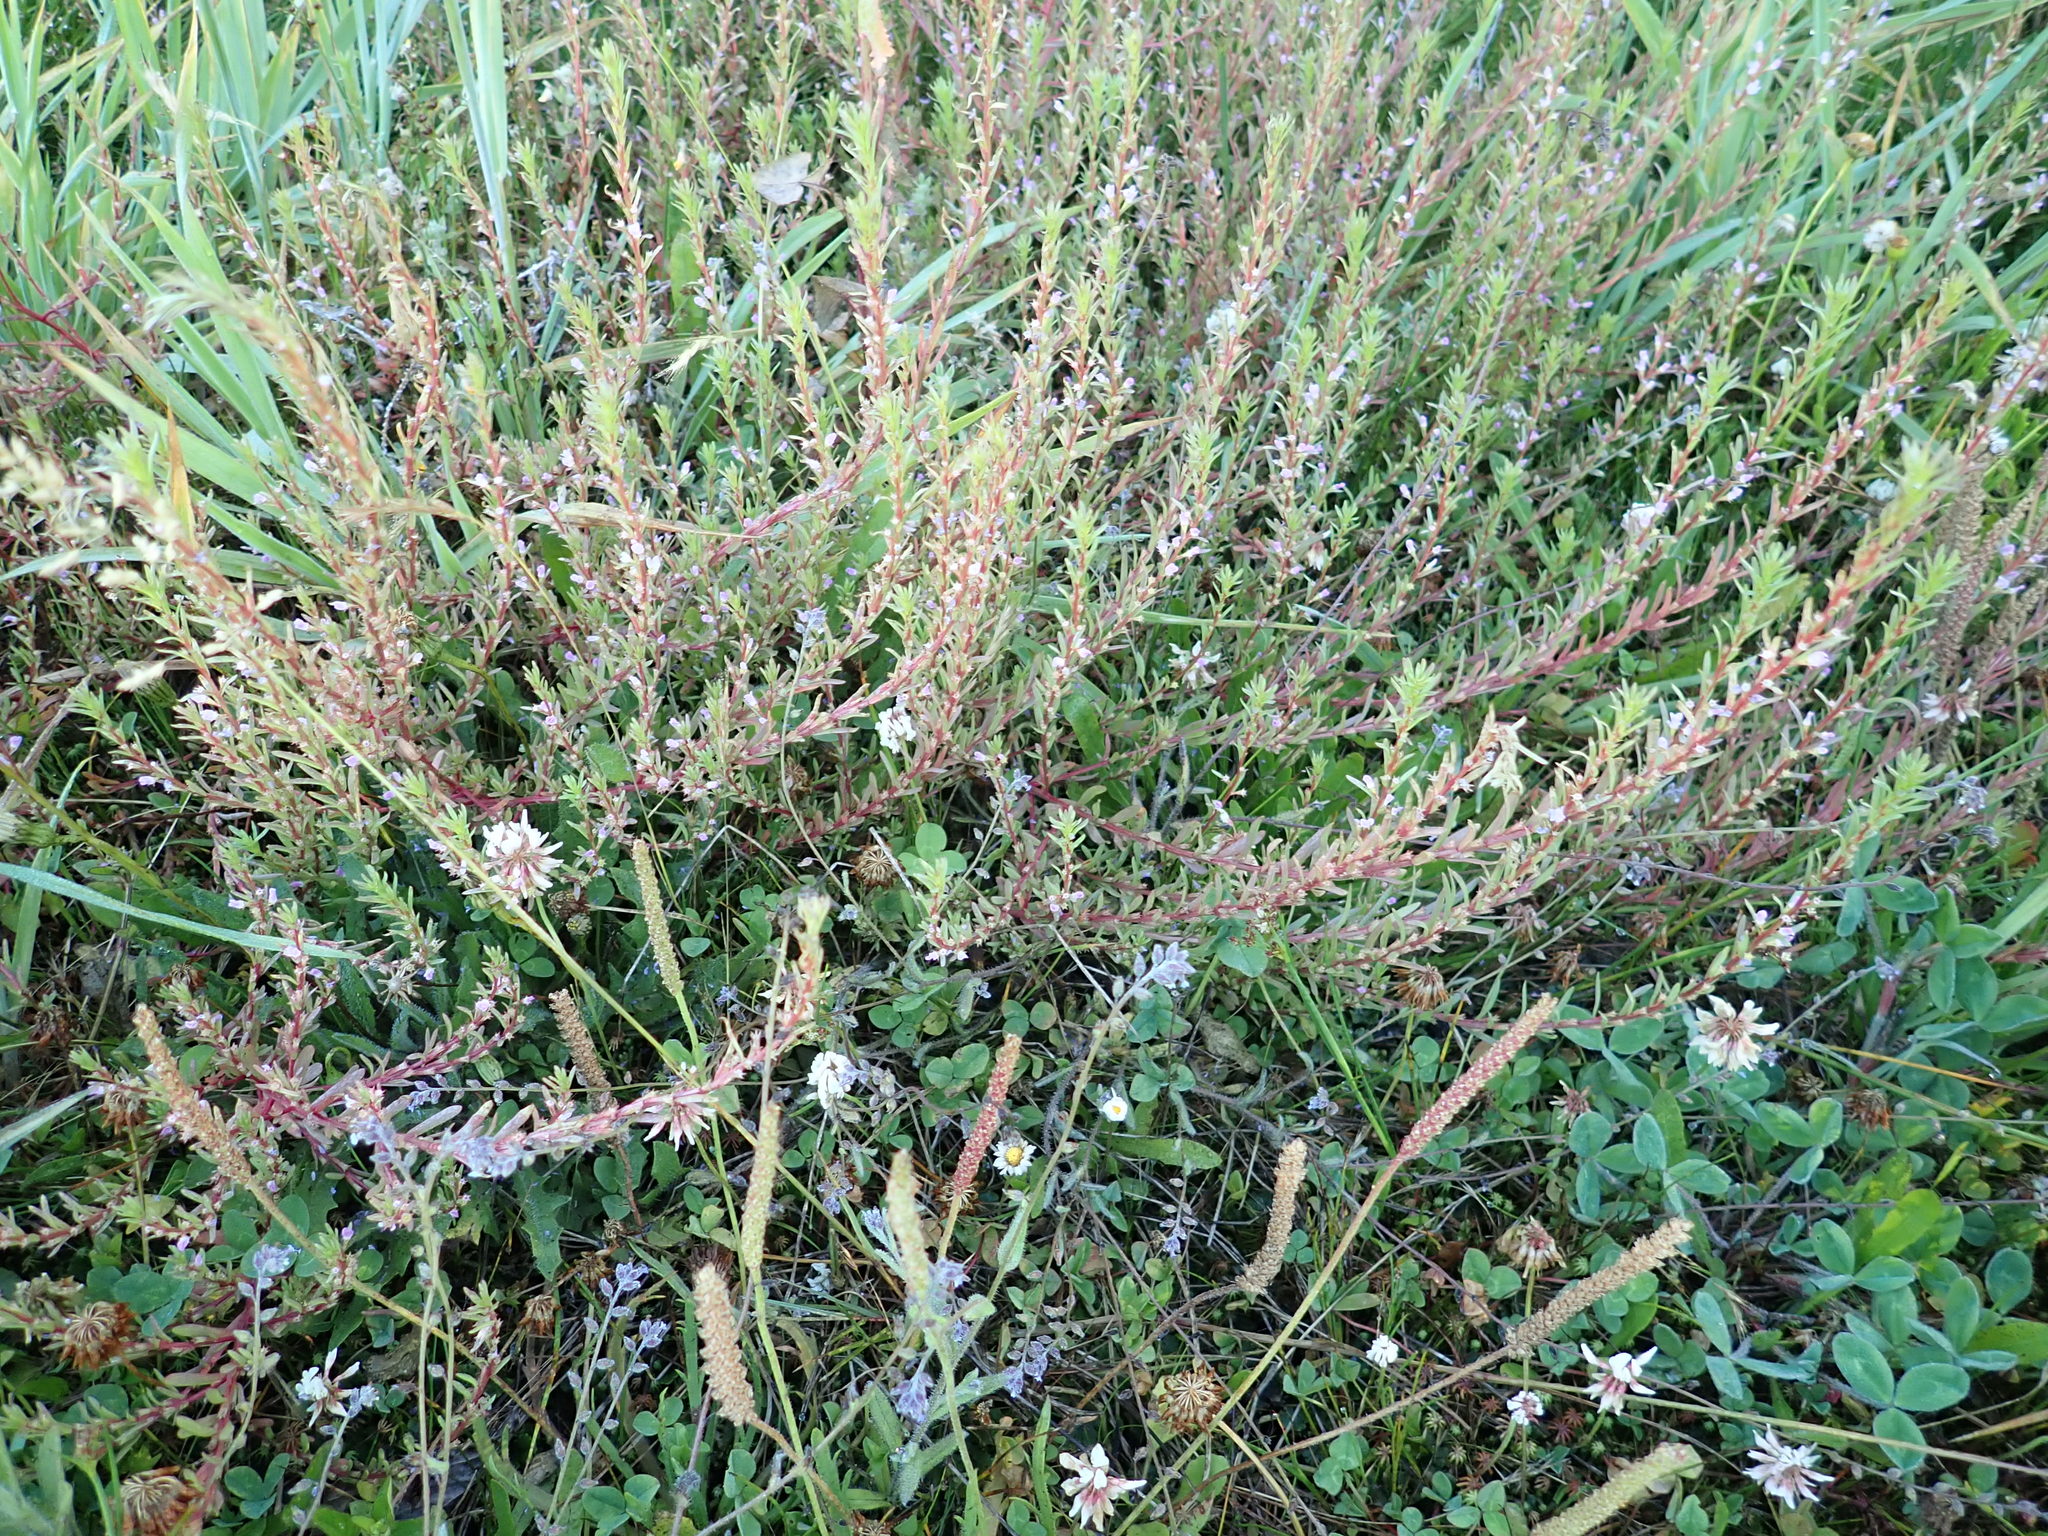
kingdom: Plantae
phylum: Tracheophyta
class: Magnoliopsida
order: Myrtales
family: Lythraceae
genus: Lythrum
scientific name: Lythrum hyssopifolia
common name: Grass-poly
